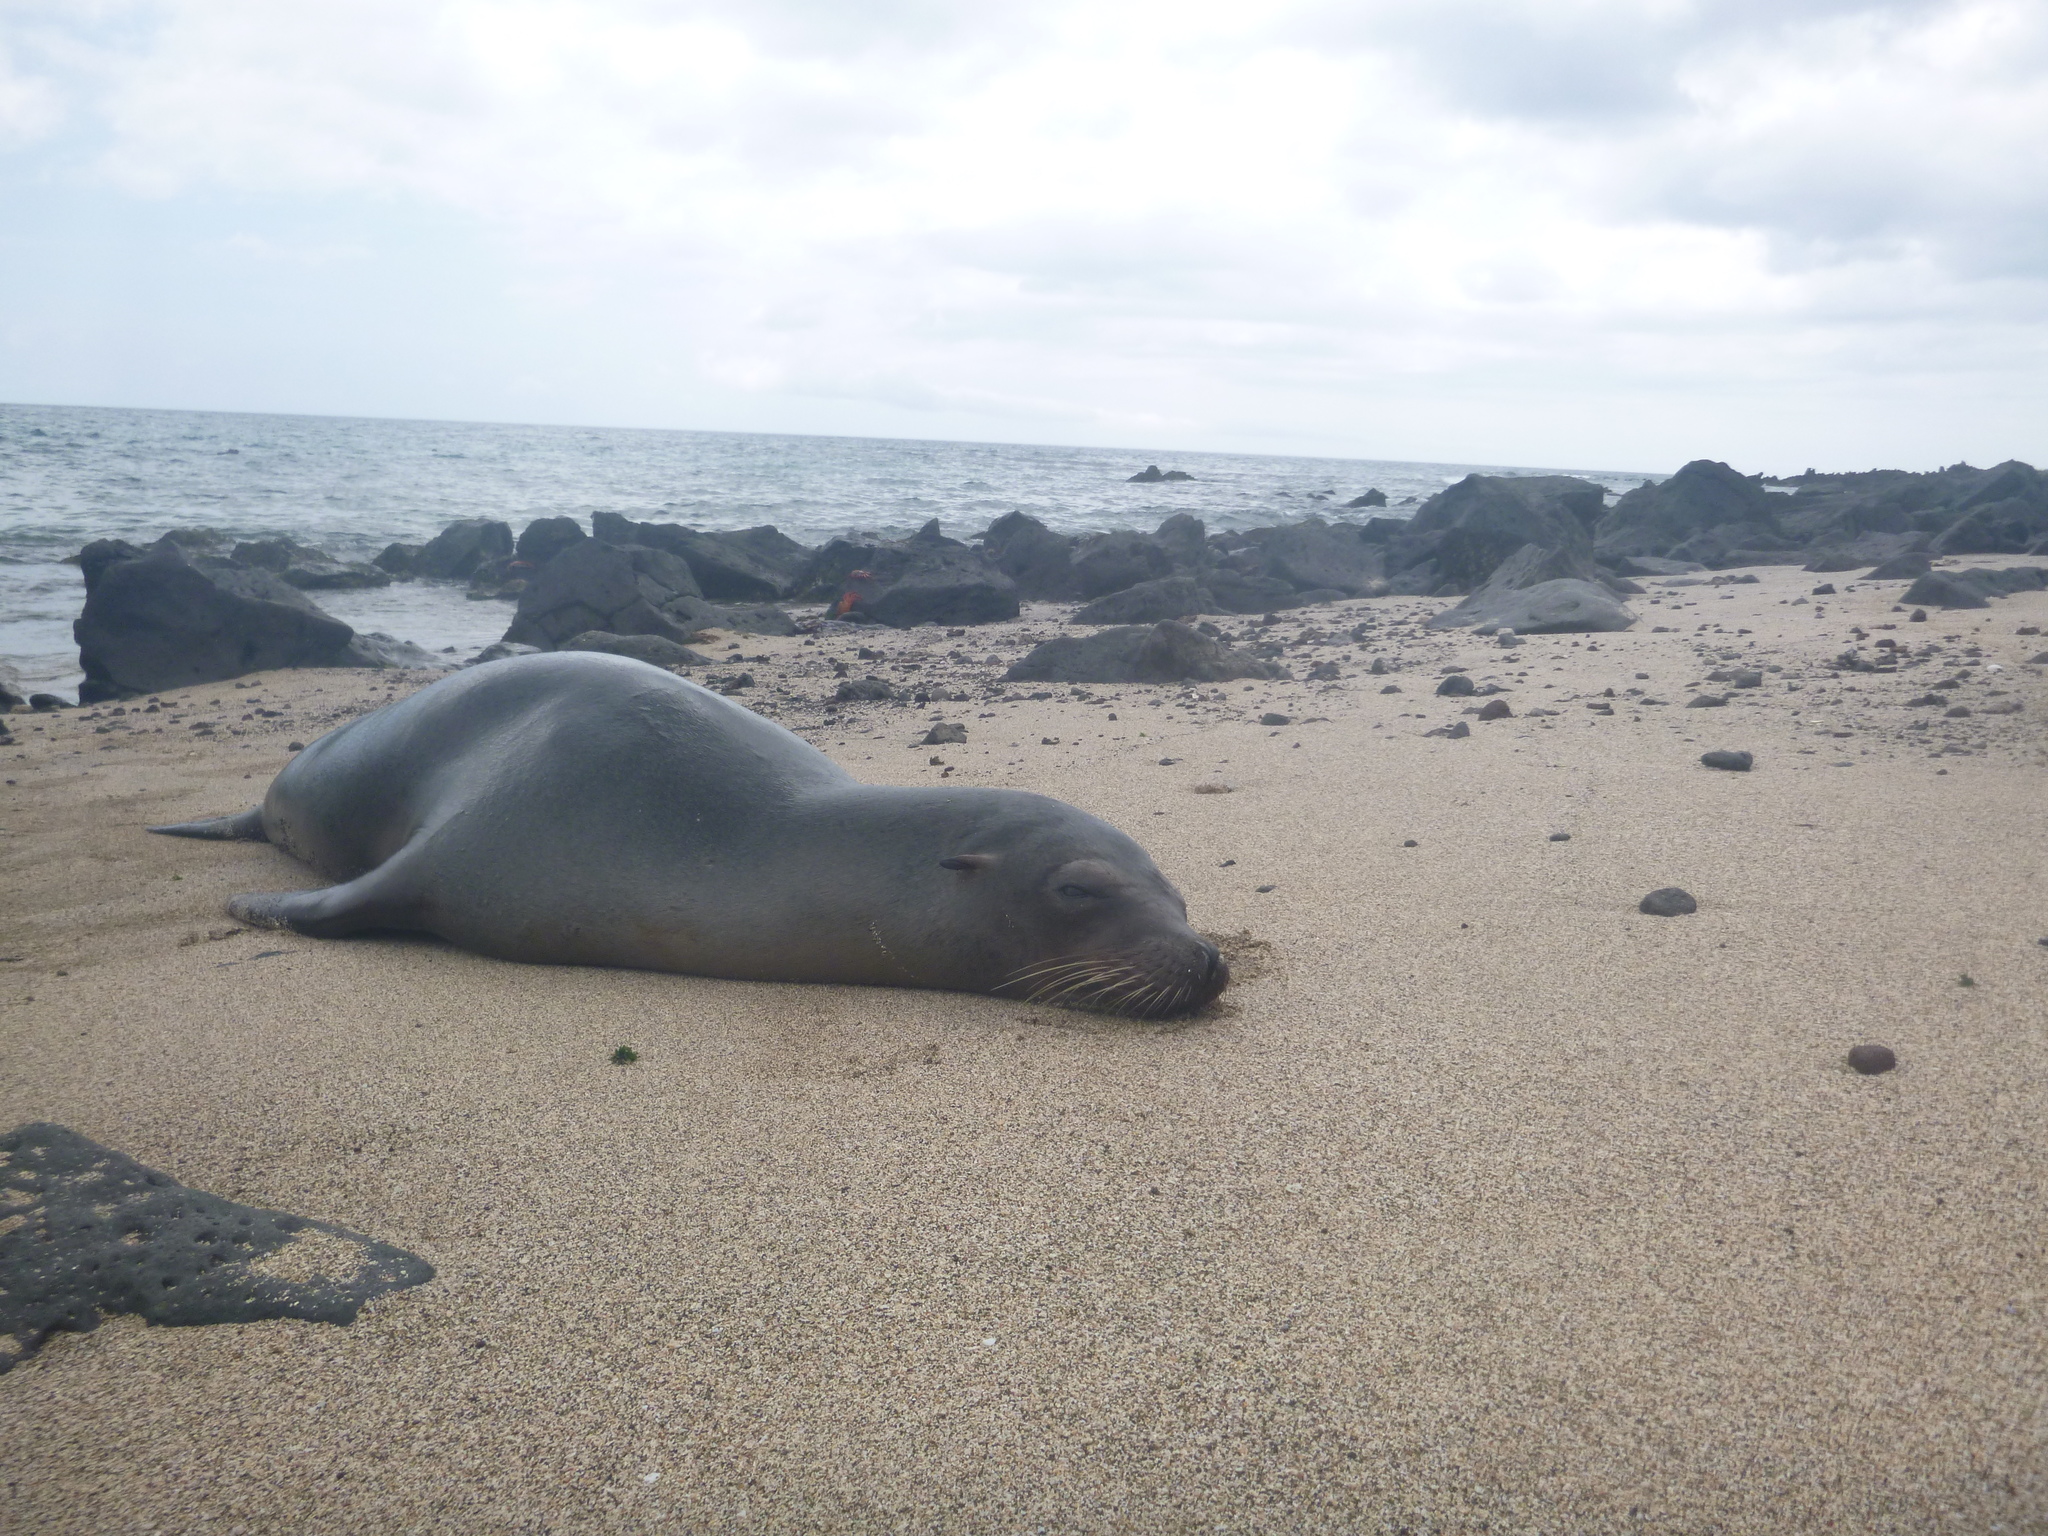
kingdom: Animalia
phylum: Chordata
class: Mammalia
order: Carnivora
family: Otariidae
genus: Zalophus
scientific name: Zalophus wollebaeki
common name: Galapagos sea lion
